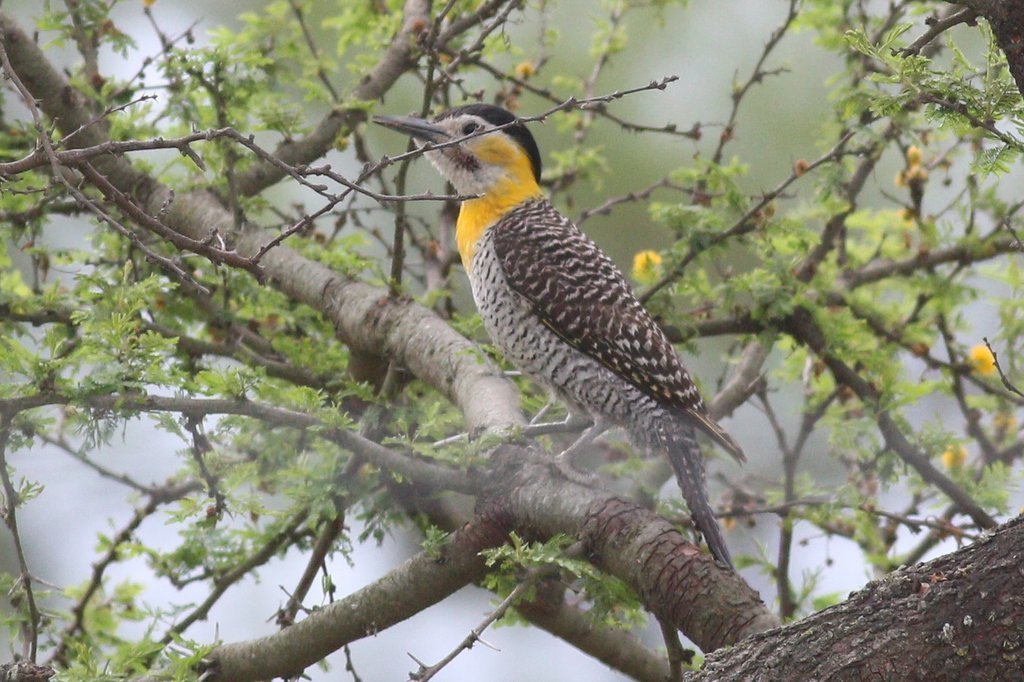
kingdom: Animalia
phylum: Chordata
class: Aves
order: Piciformes
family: Picidae
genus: Colaptes
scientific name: Colaptes campestris
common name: Campo flicker
